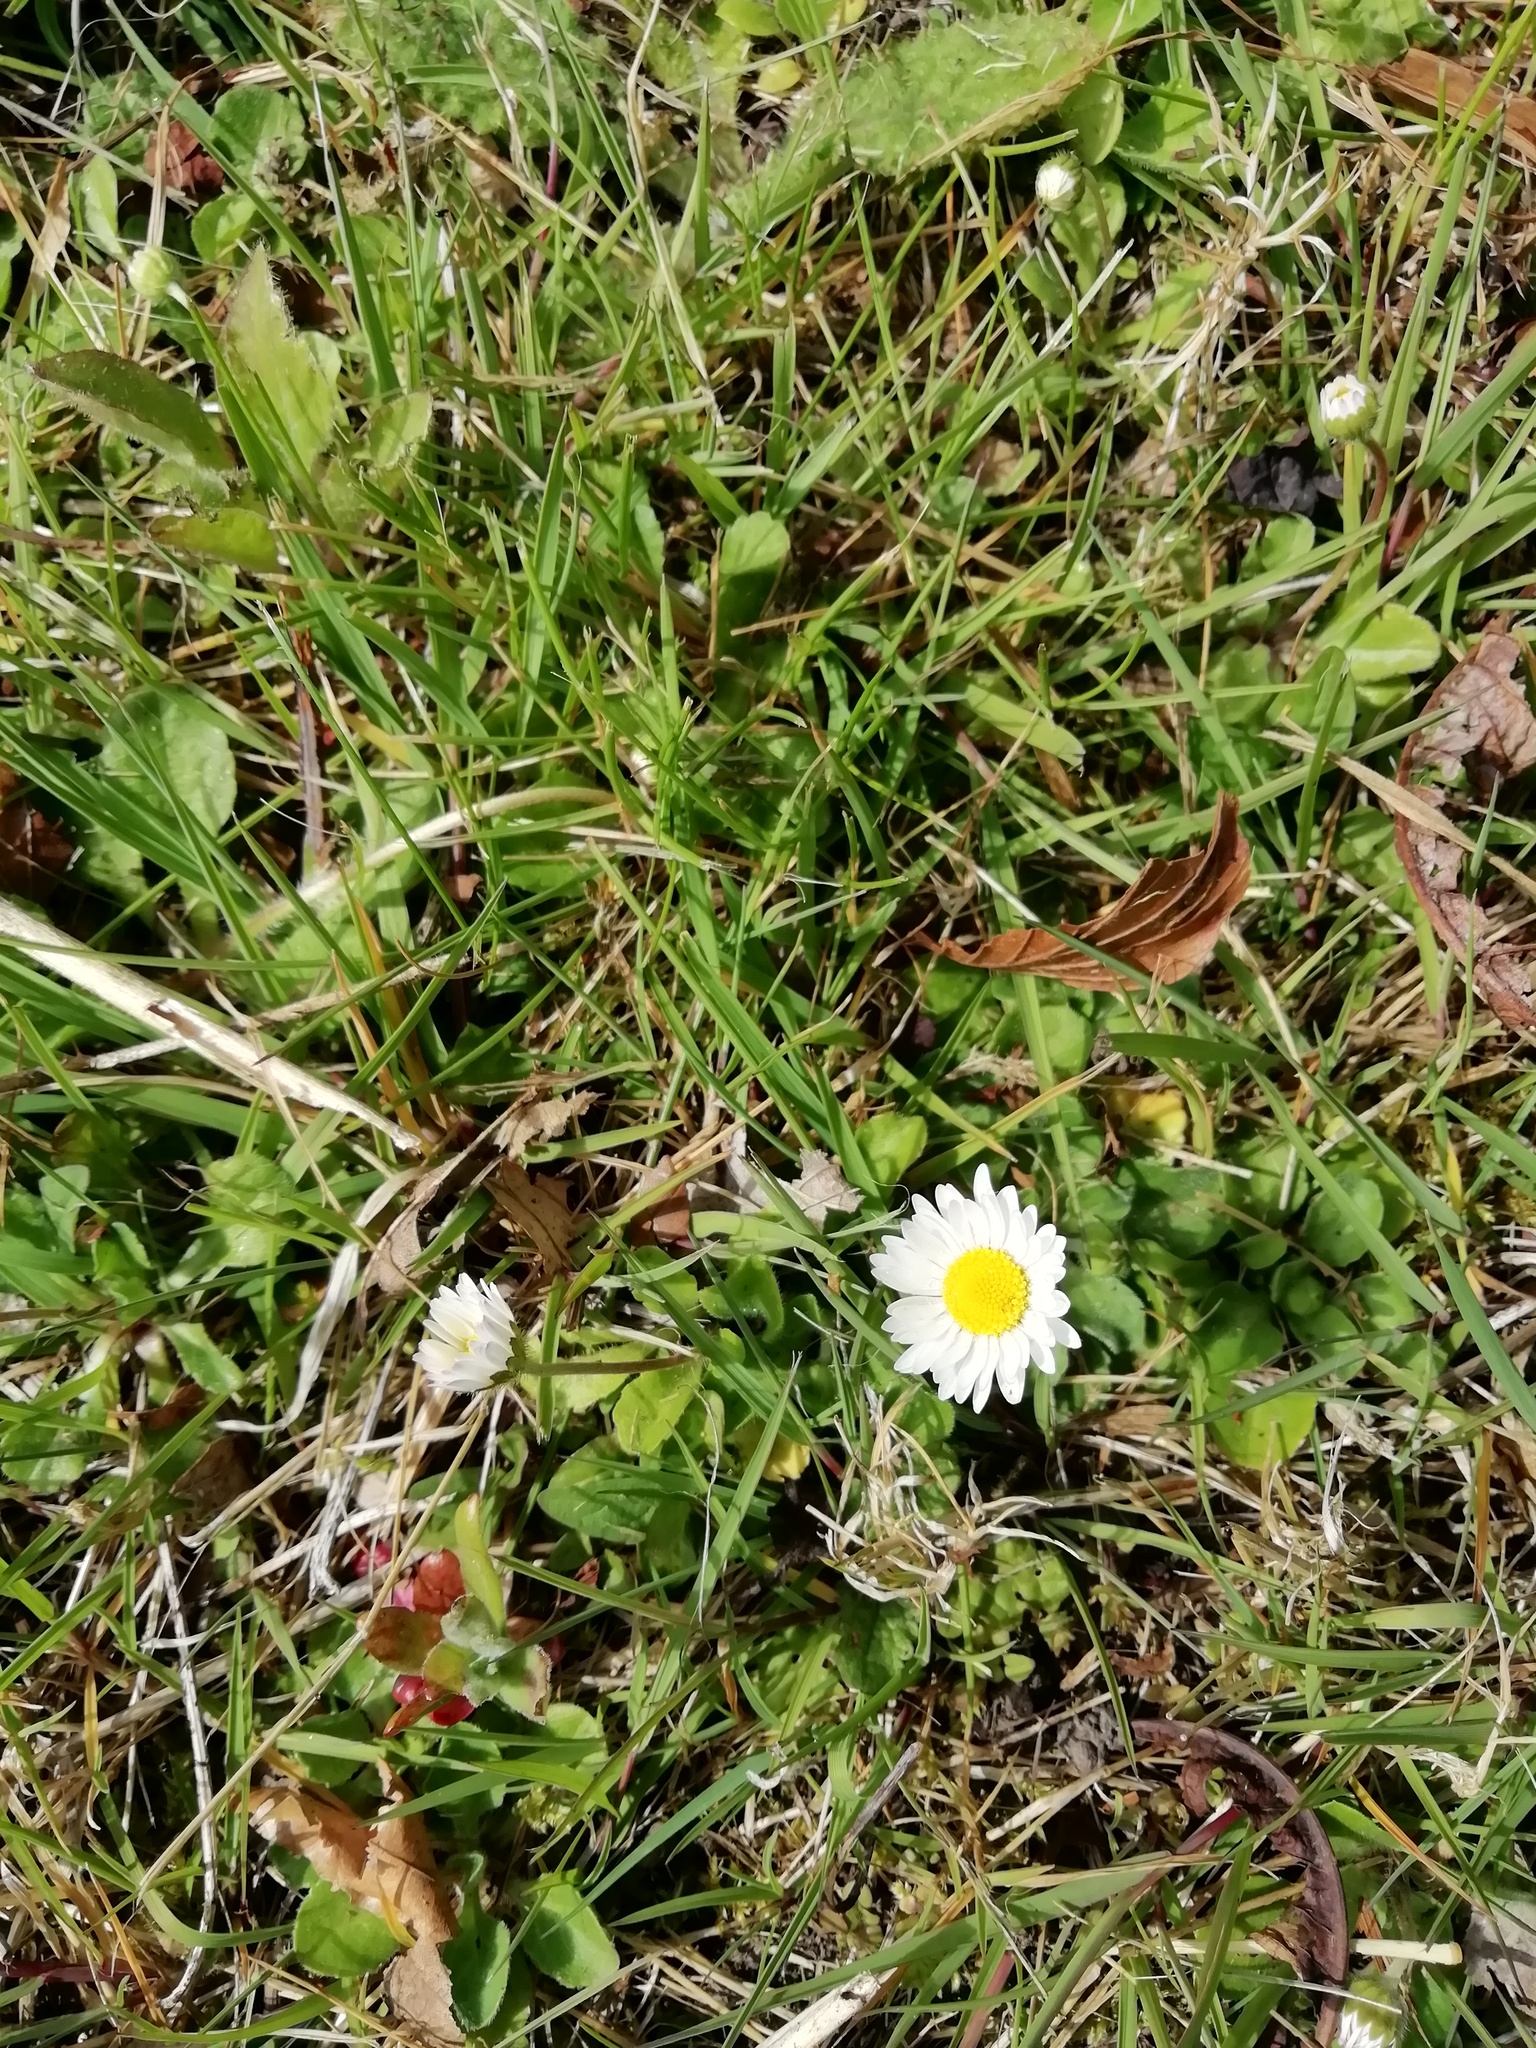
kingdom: Plantae
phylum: Tracheophyta
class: Magnoliopsida
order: Asterales
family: Asteraceae
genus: Bellis
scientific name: Bellis perennis
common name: Lawndaisy
